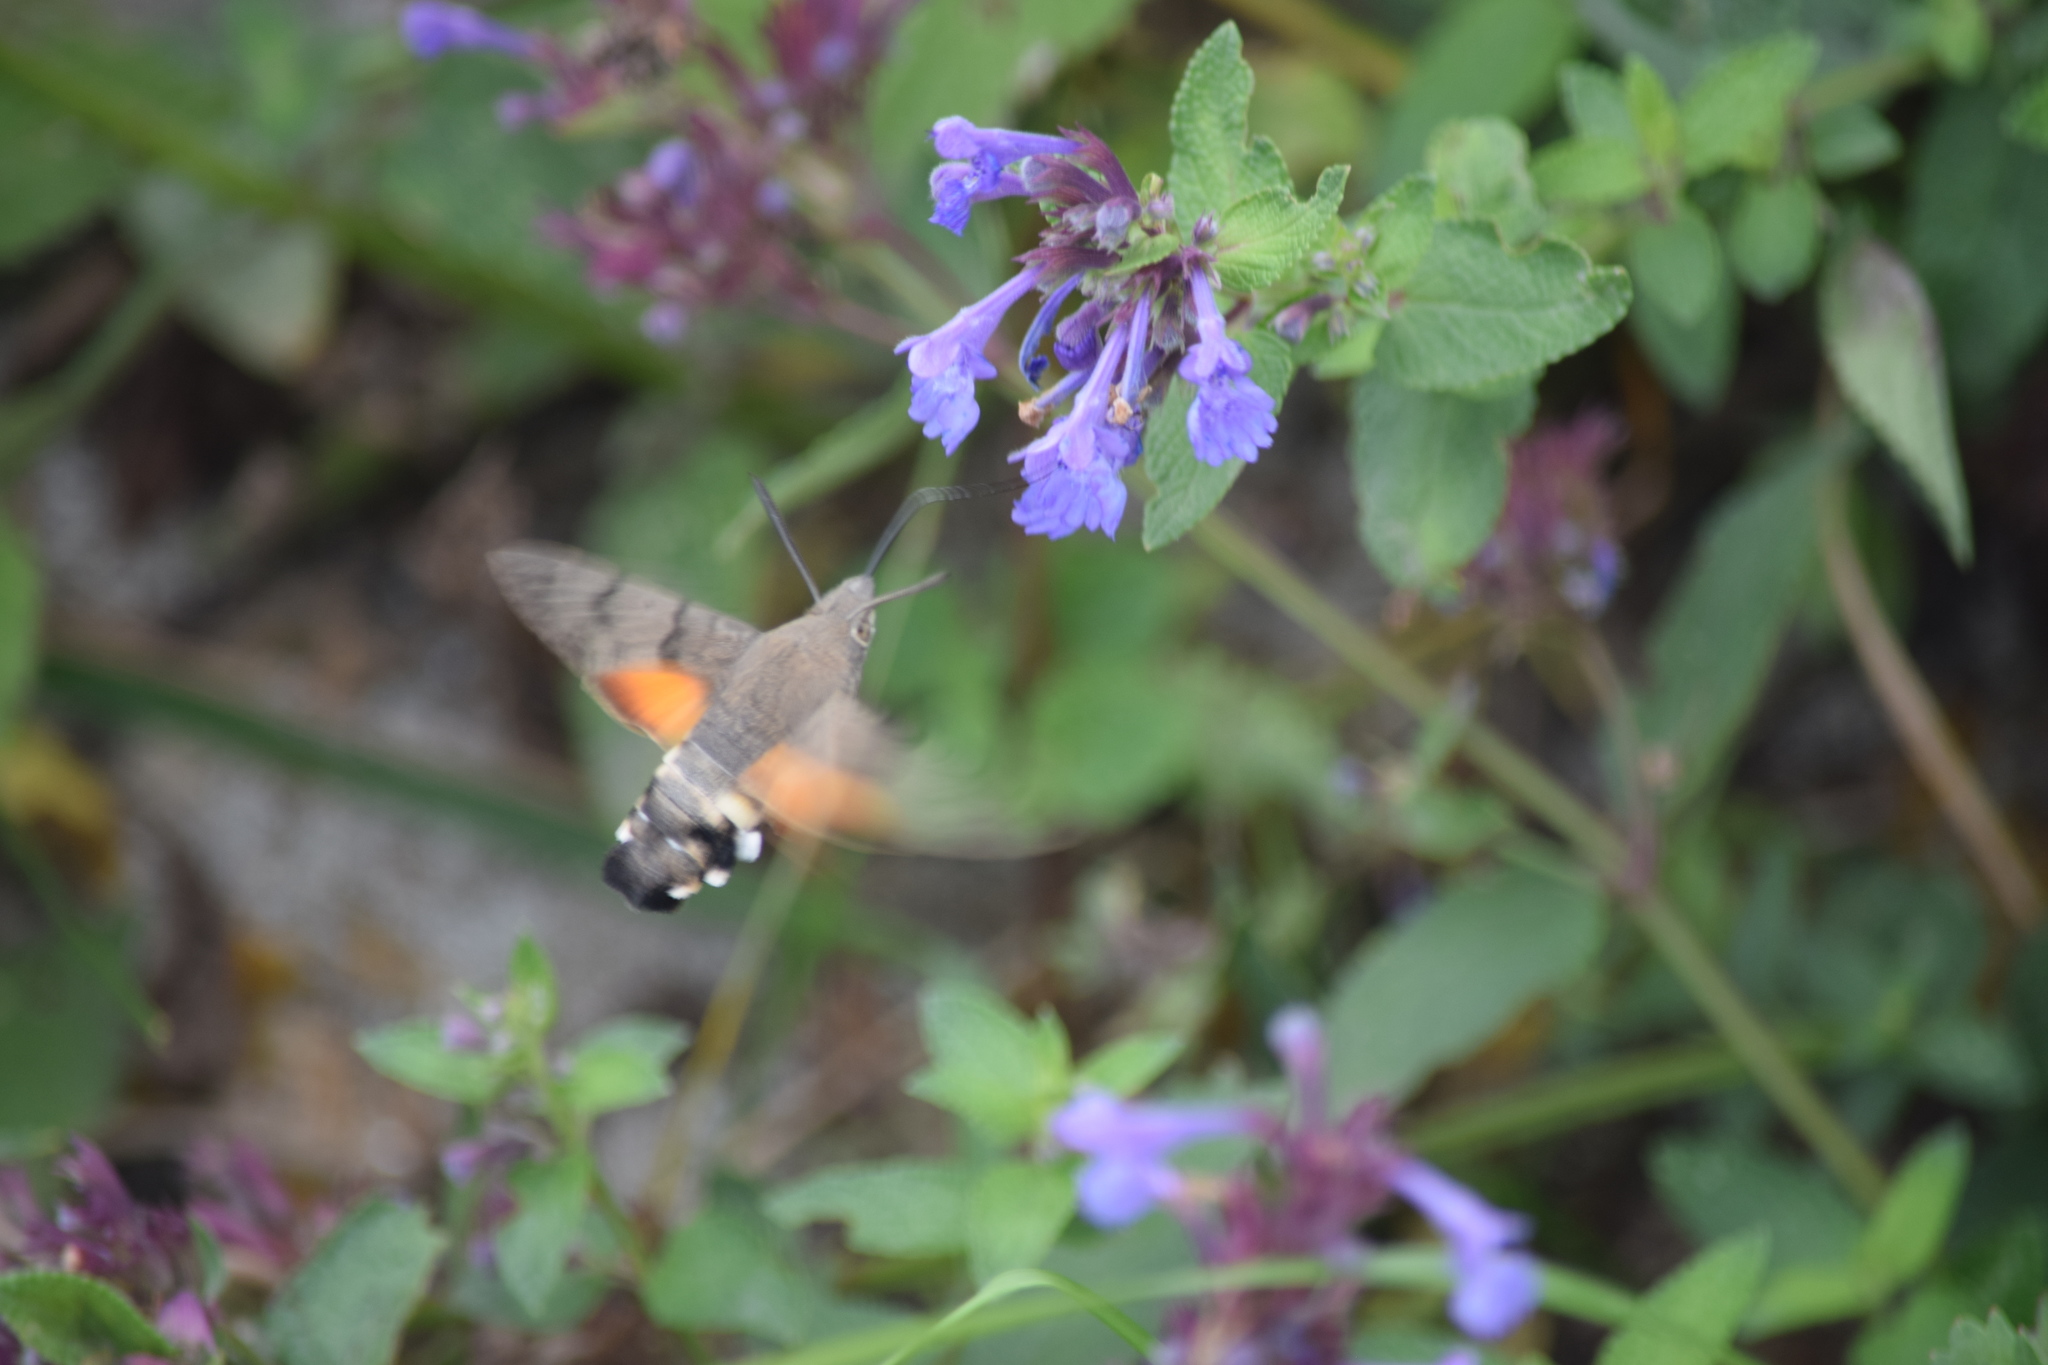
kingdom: Animalia
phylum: Arthropoda
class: Insecta
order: Lepidoptera
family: Sphingidae
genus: Macroglossum
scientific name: Macroglossum stellatarum
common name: Humming-bird hawk-moth
